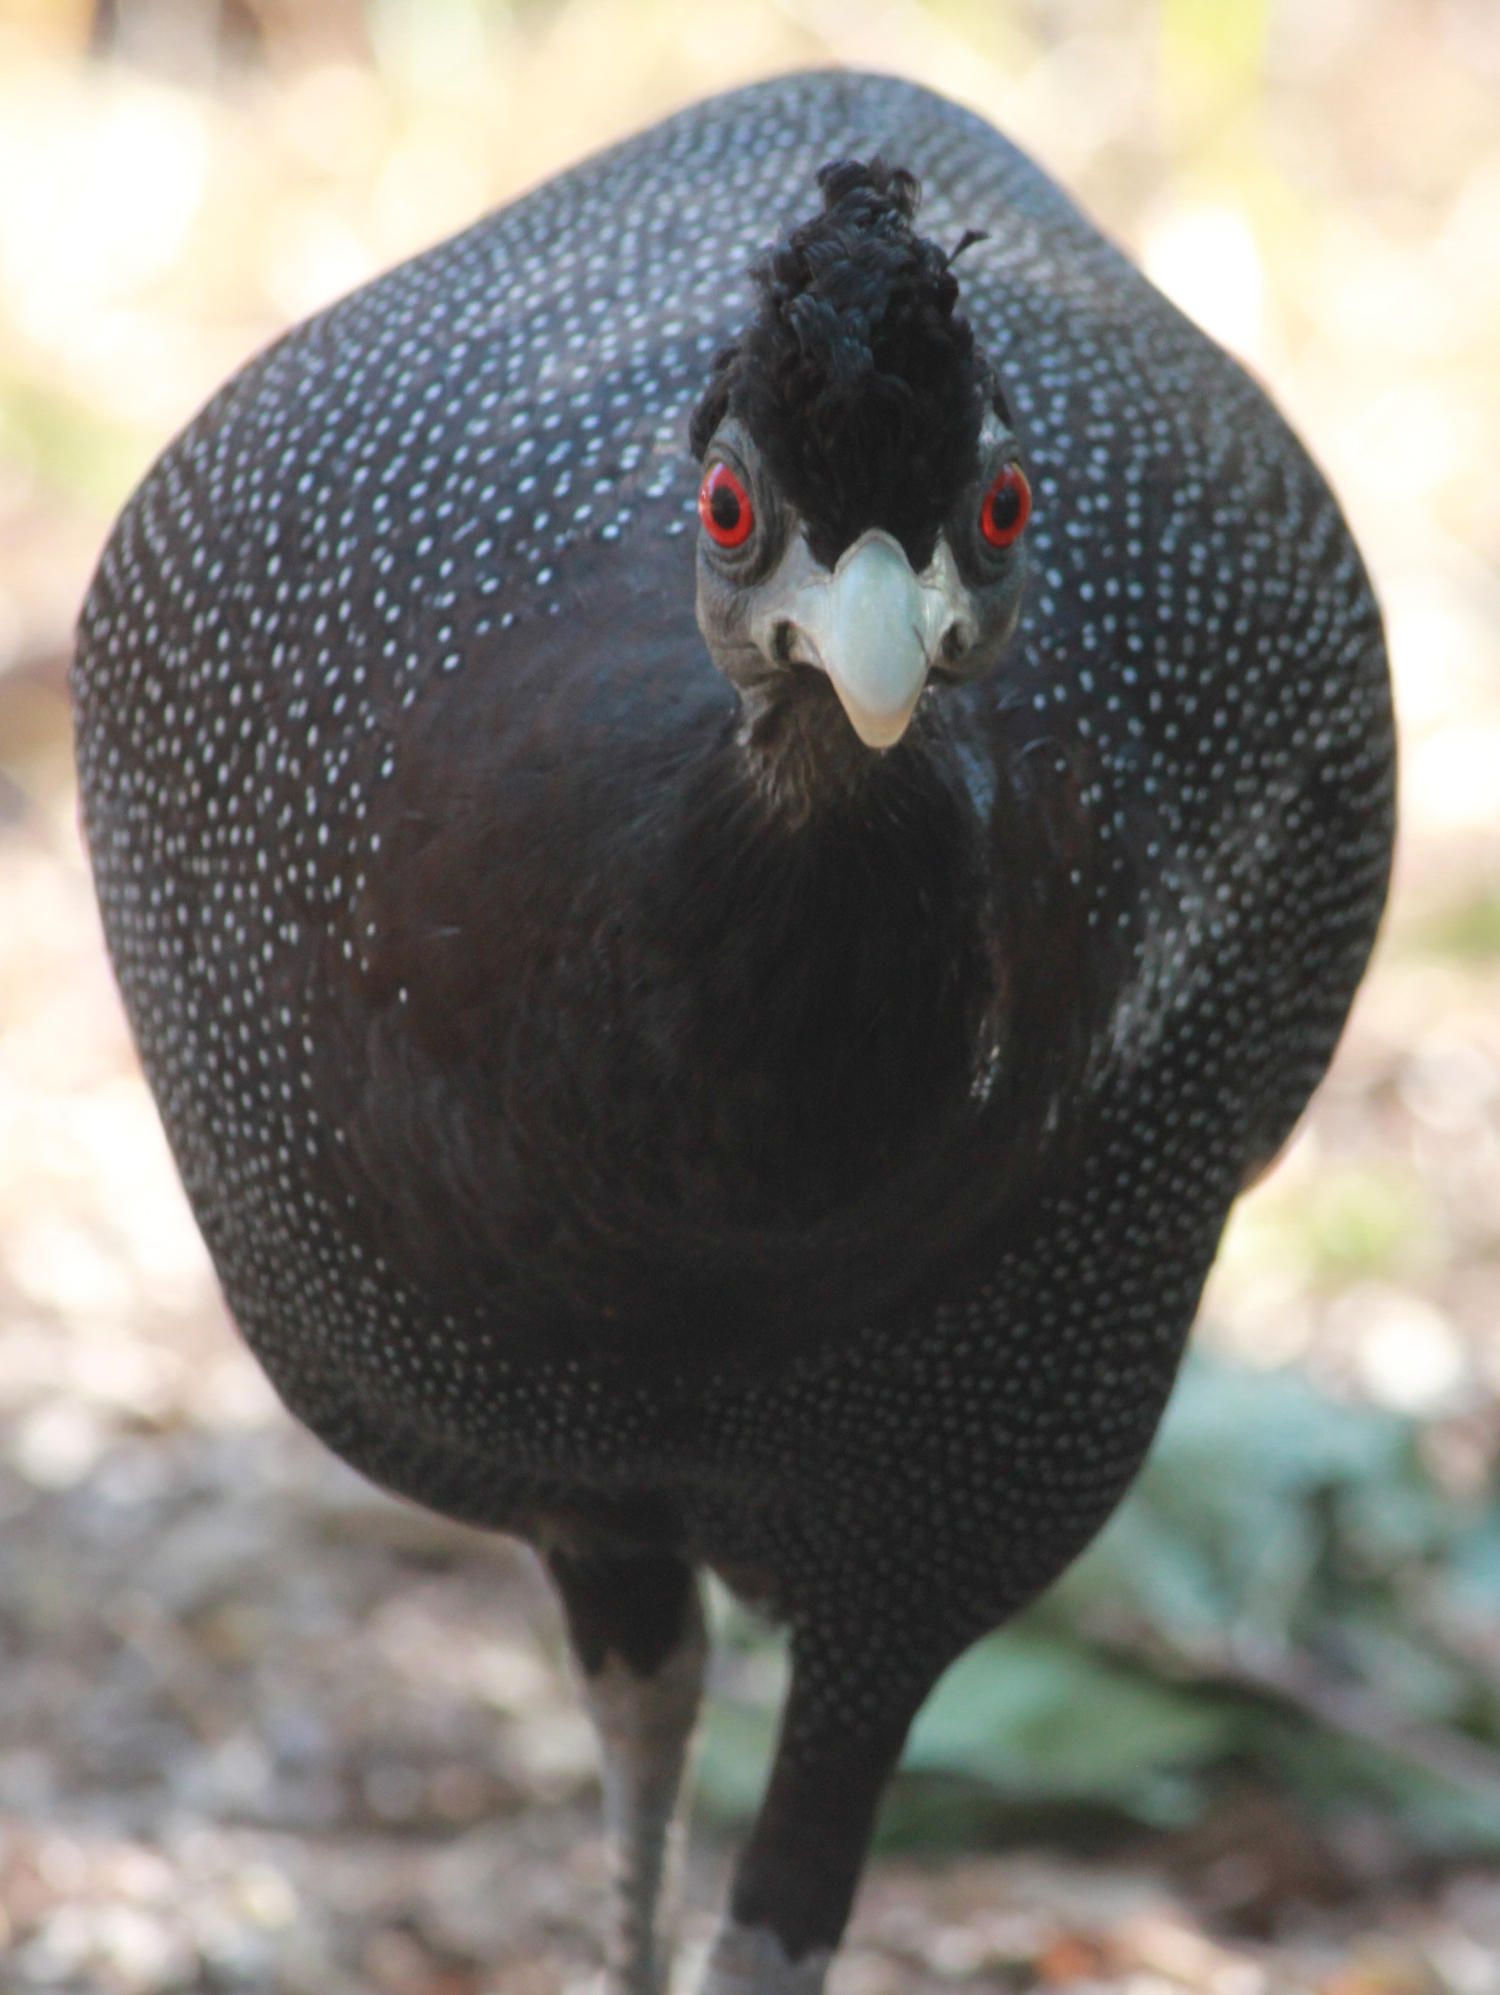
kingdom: Animalia
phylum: Chordata
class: Aves
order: Galliformes
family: Numididae
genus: Guttera
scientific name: Guttera pucherani
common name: Crested guineafowl
